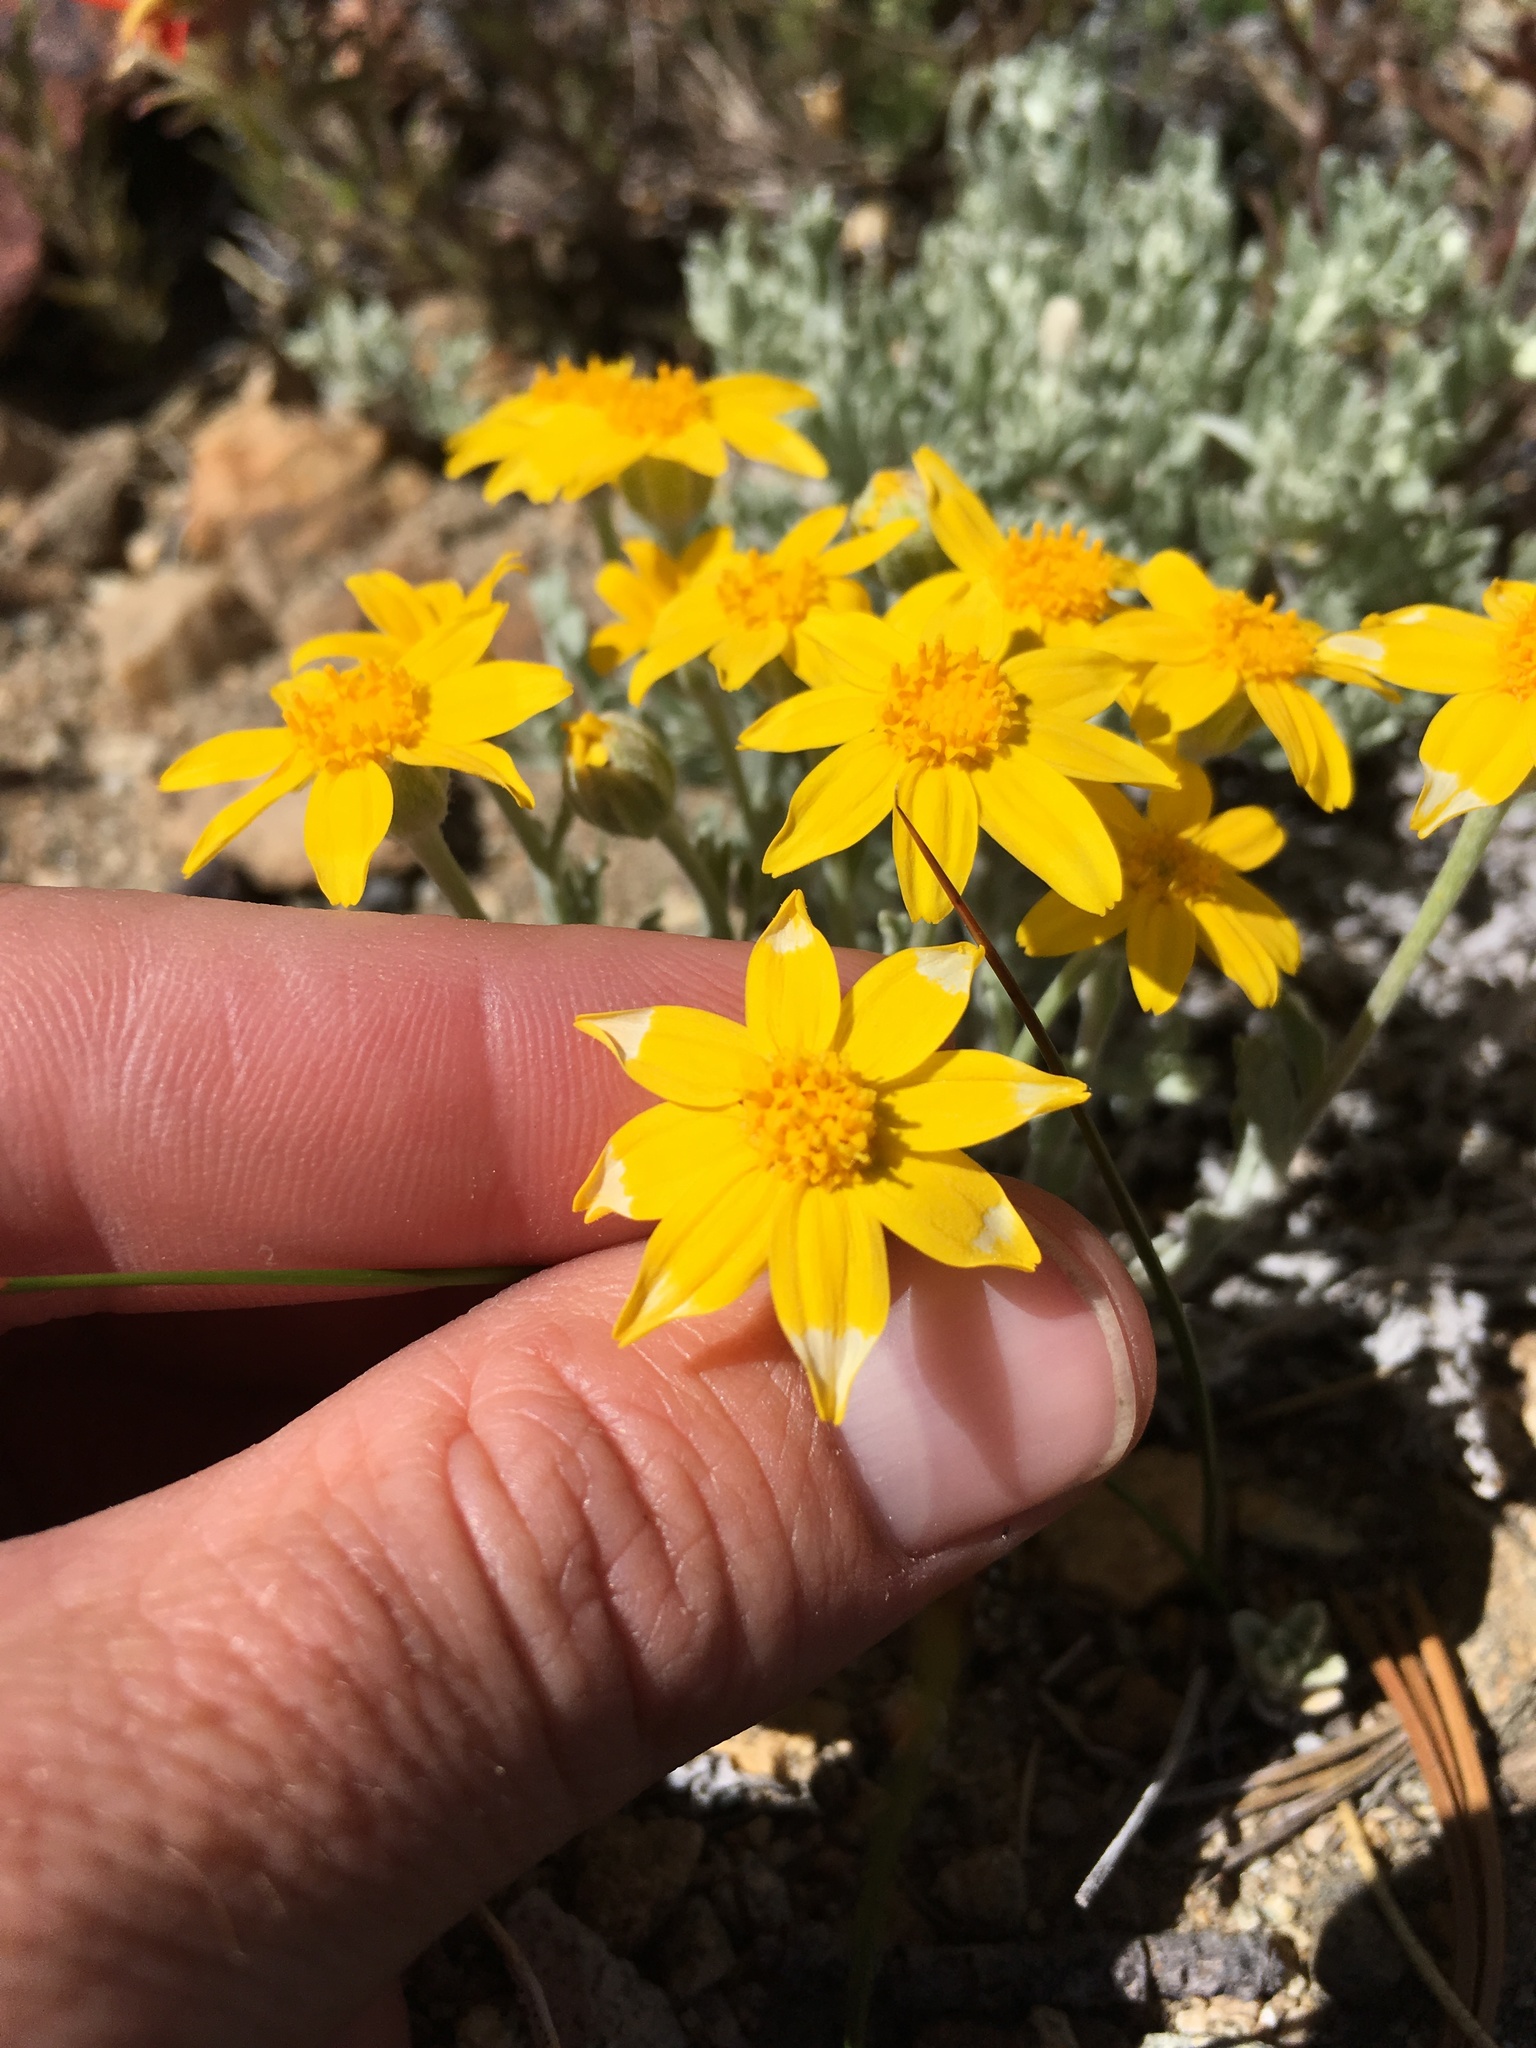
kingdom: Plantae
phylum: Tracheophyta
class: Magnoliopsida
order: Asterales
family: Asteraceae
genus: Eriophyllum
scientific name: Eriophyllum lanatum
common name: Common woolly-sunflower
